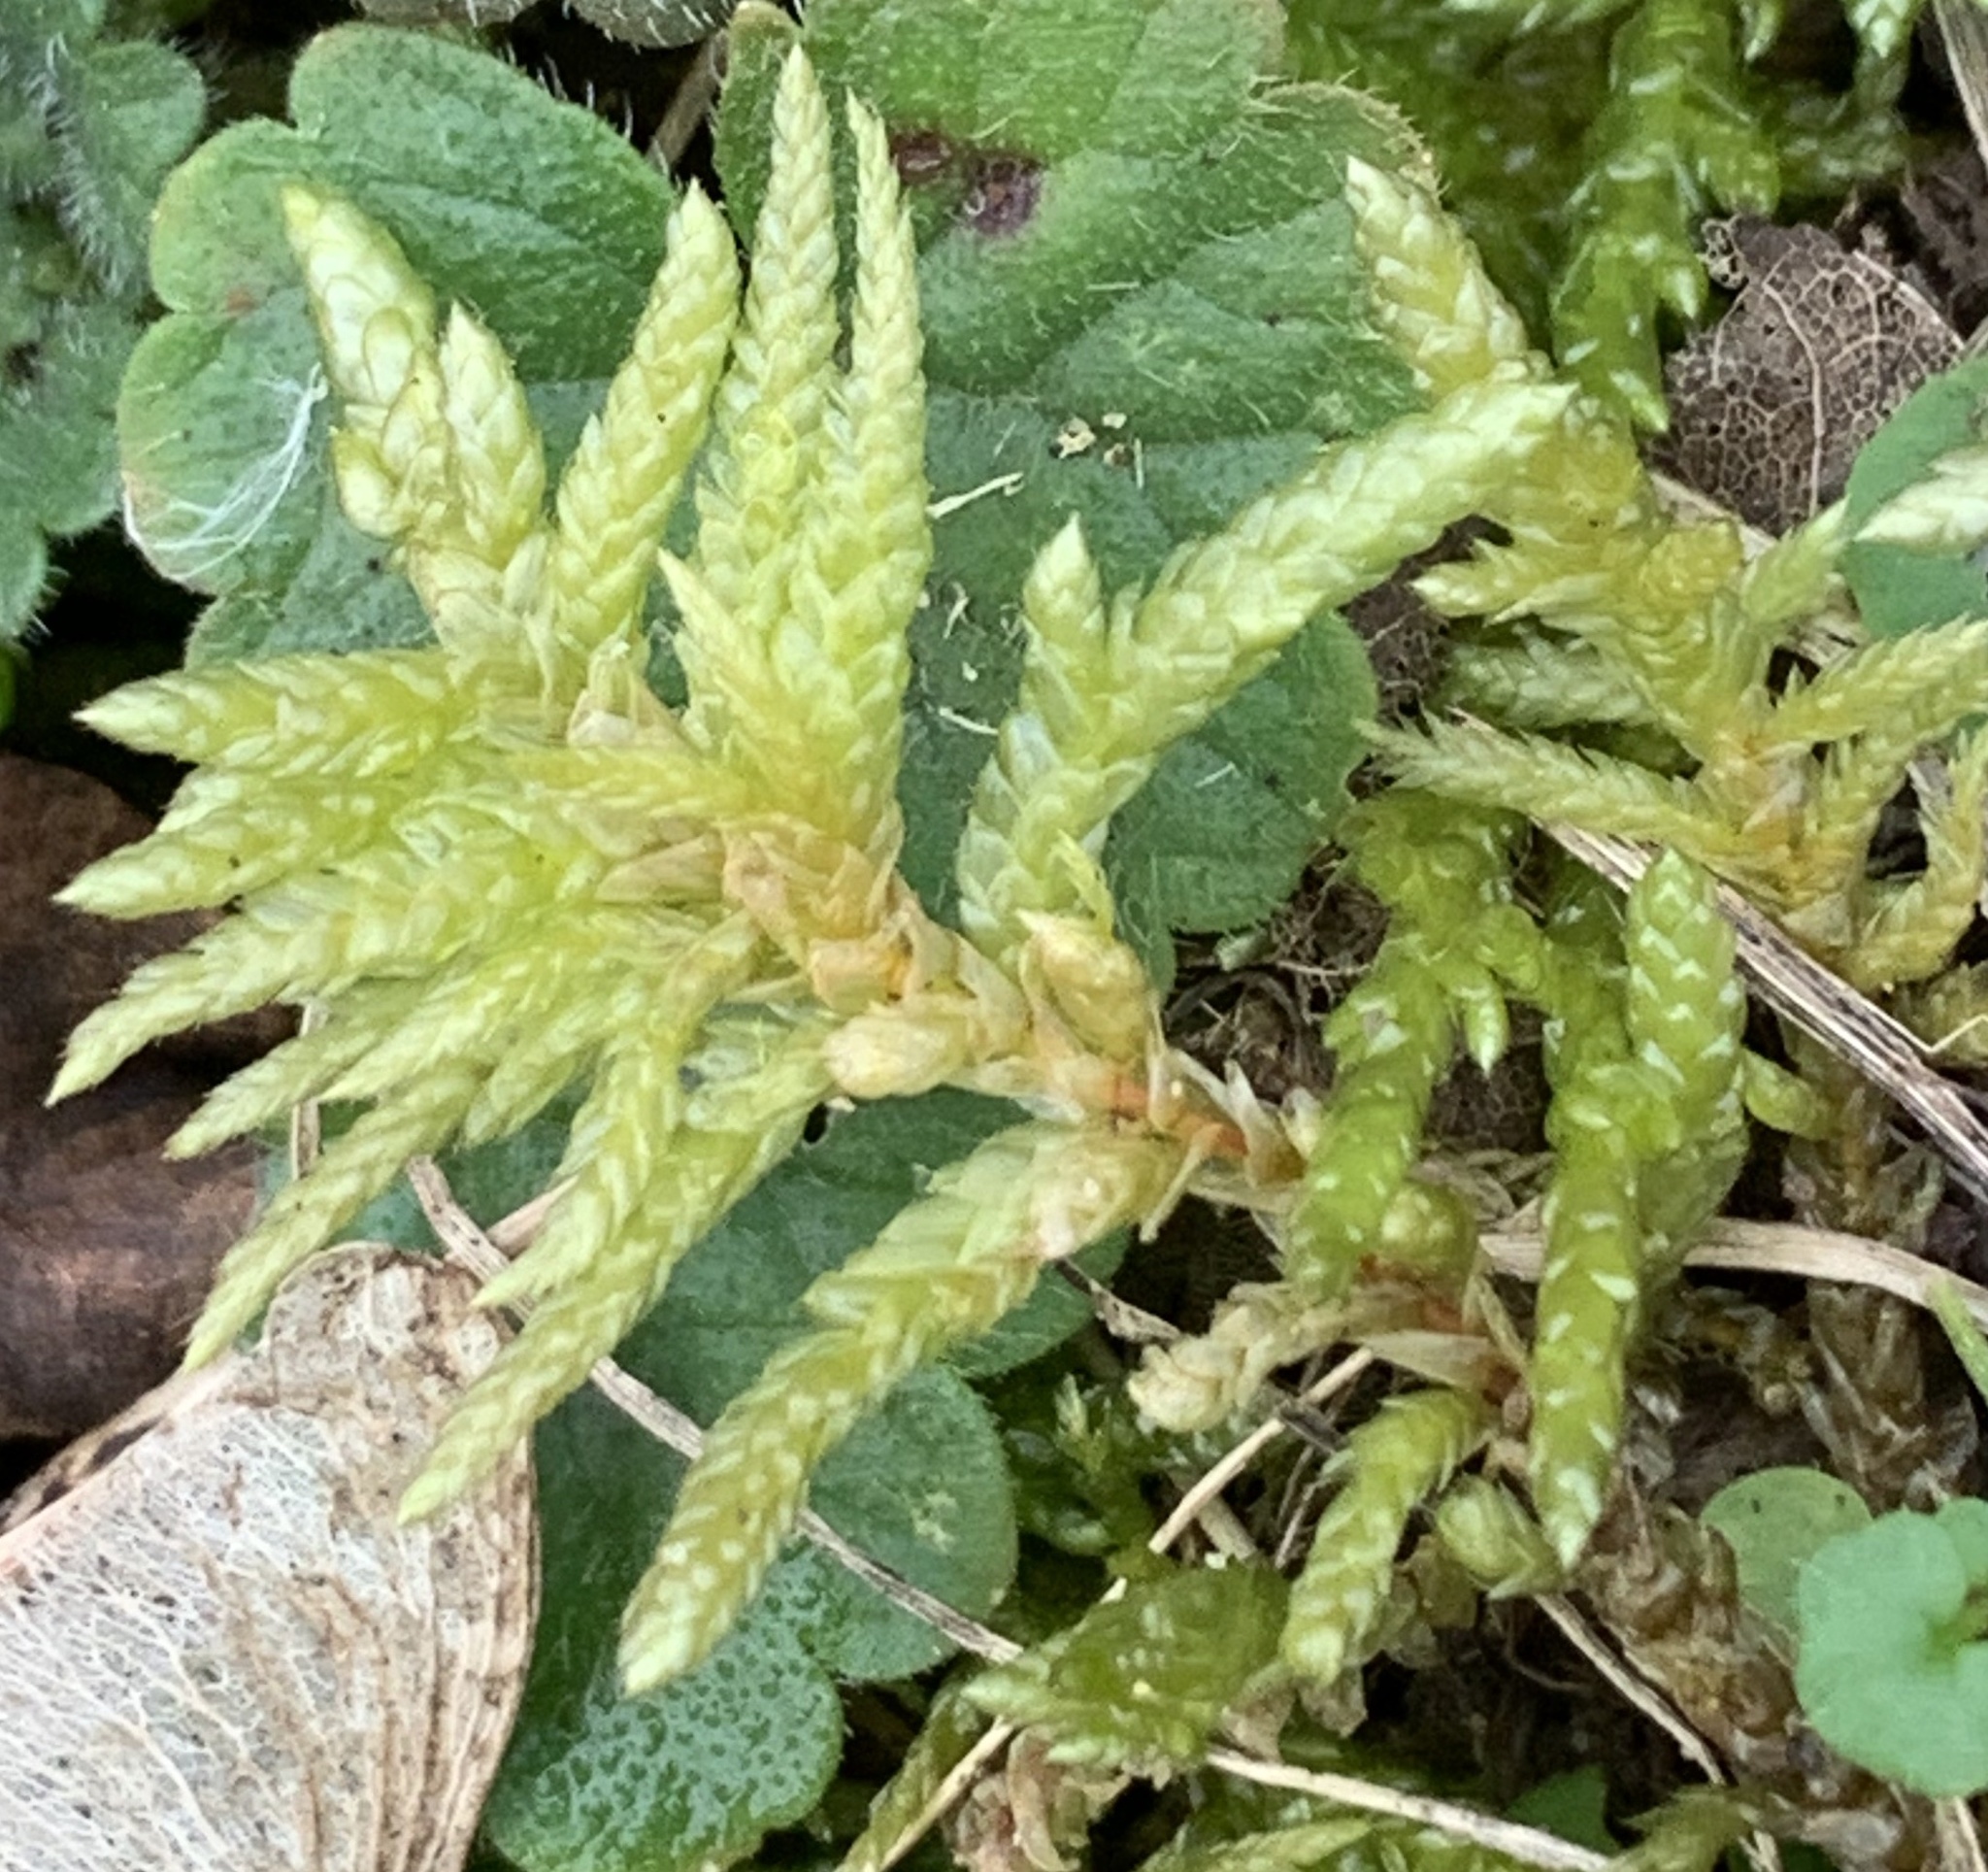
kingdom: Plantae
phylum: Bryophyta
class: Bryopsida
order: Hypnales
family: Brachytheciaceae
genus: Pseudoscleropodium
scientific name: Pseudoscleropodium purum
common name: Neat feather-moss
